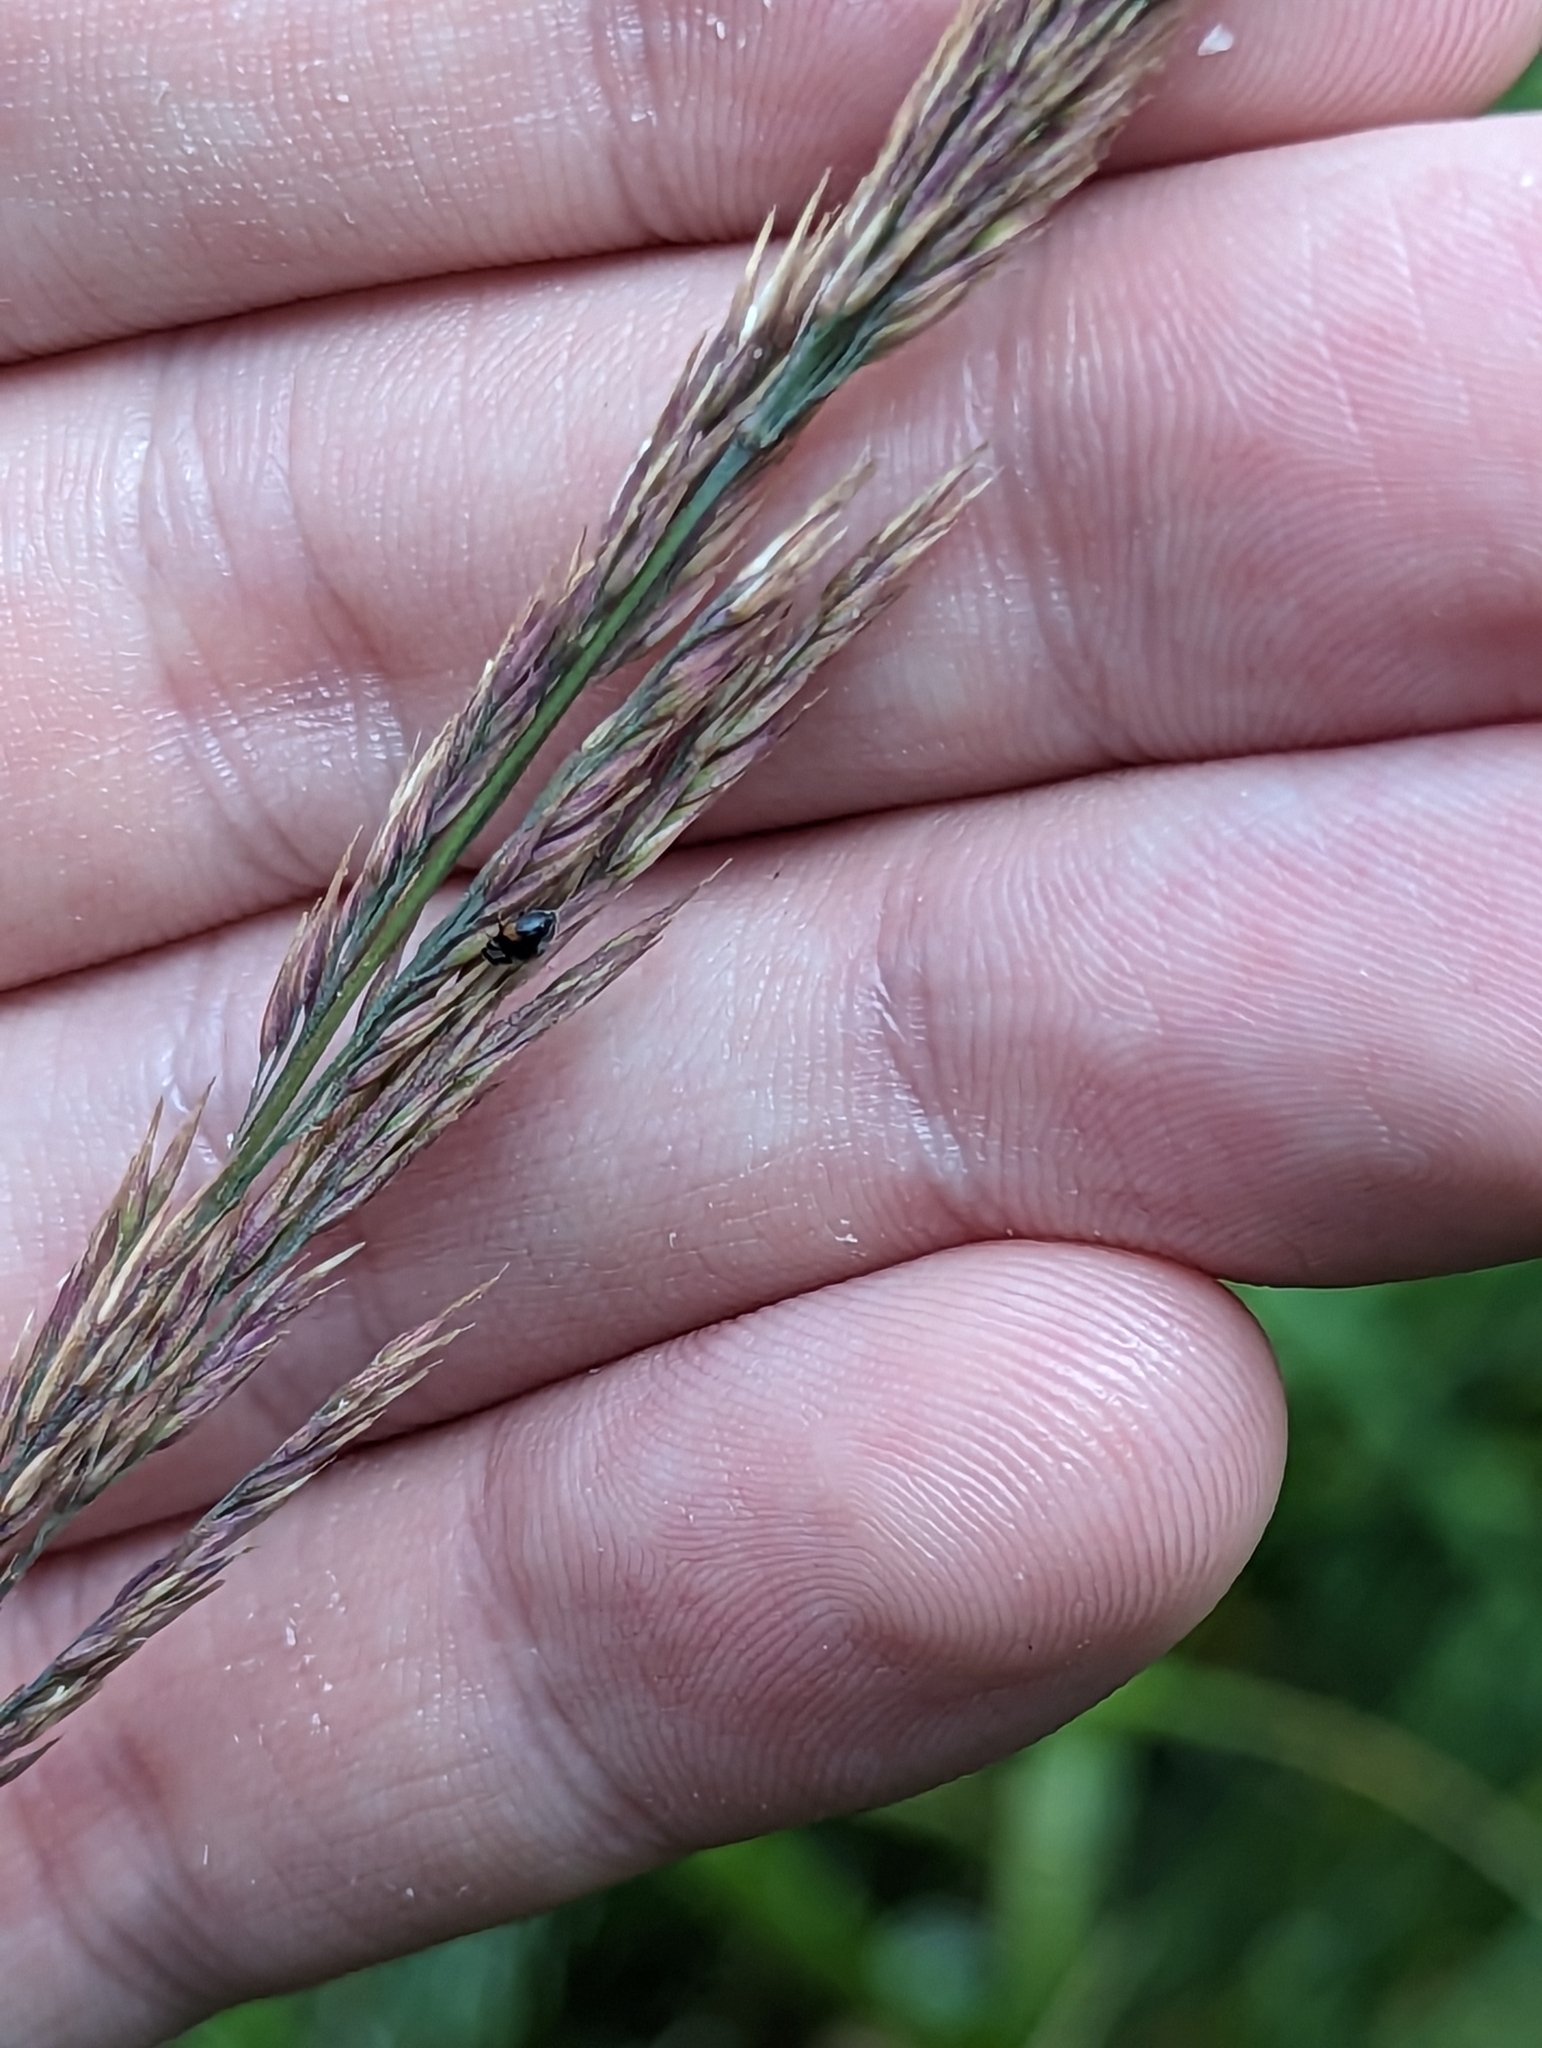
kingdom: Animalia
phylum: Arthropoda
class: Insecta
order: Coleoptera
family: Coccinellidae
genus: Scymnus
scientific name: Scymnus interruptus
